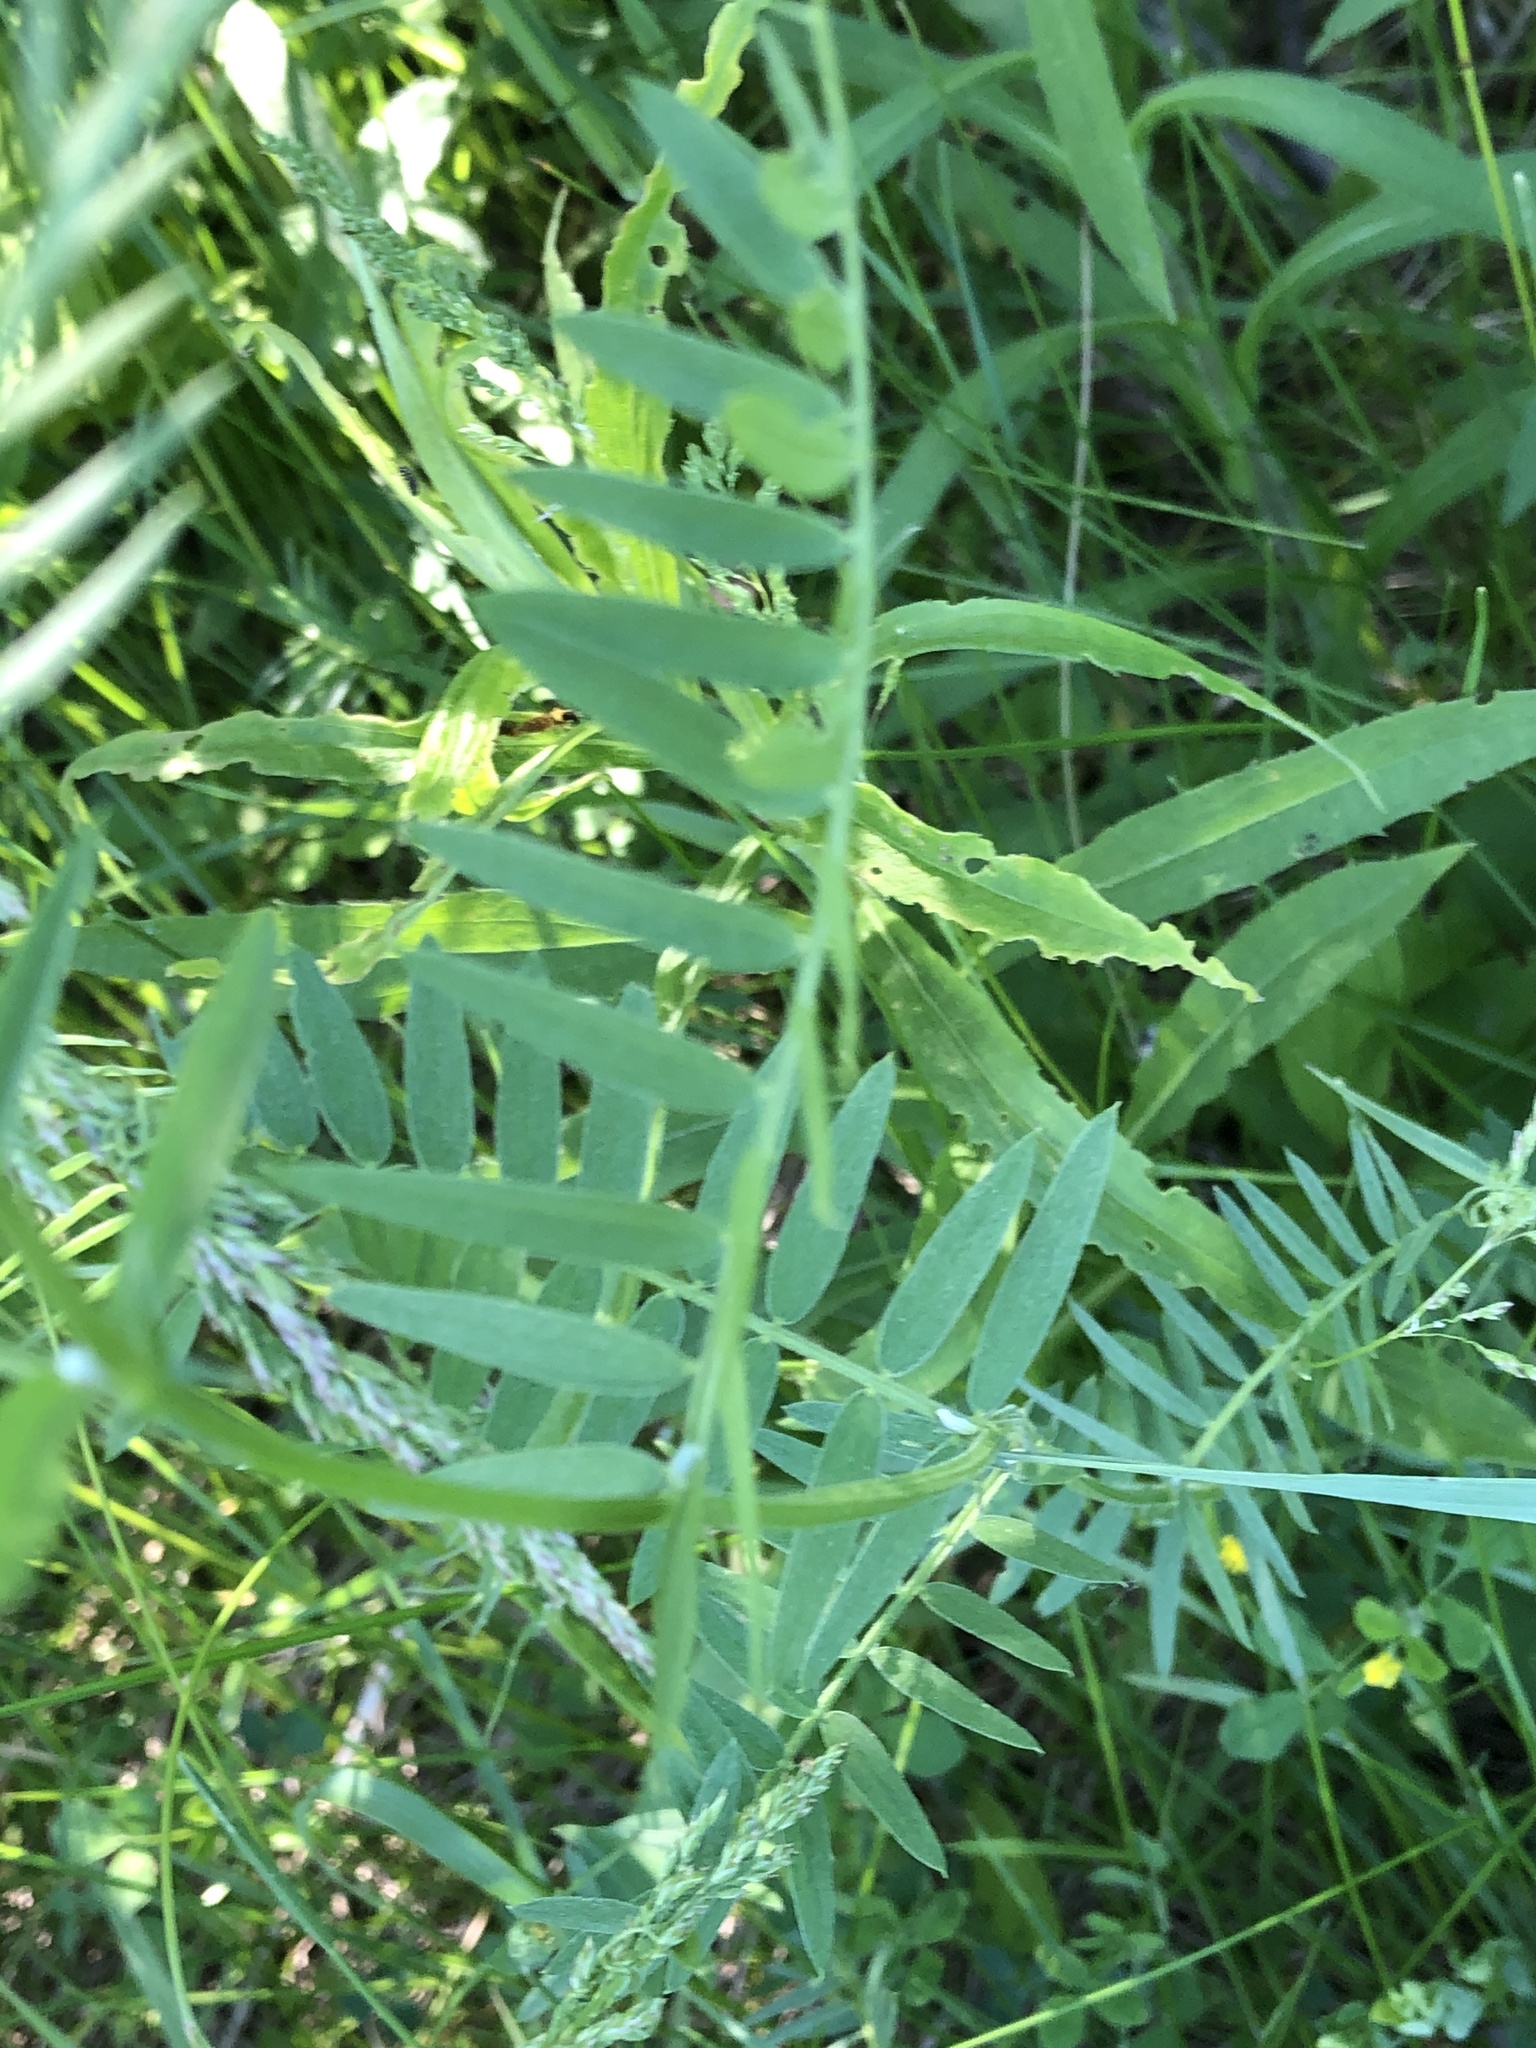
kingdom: Plantae
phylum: Tracheophyta
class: Magnoliopsida
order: Fabales
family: Fabaceae
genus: Vicia
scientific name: Vicia cracca
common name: Bird vetch
